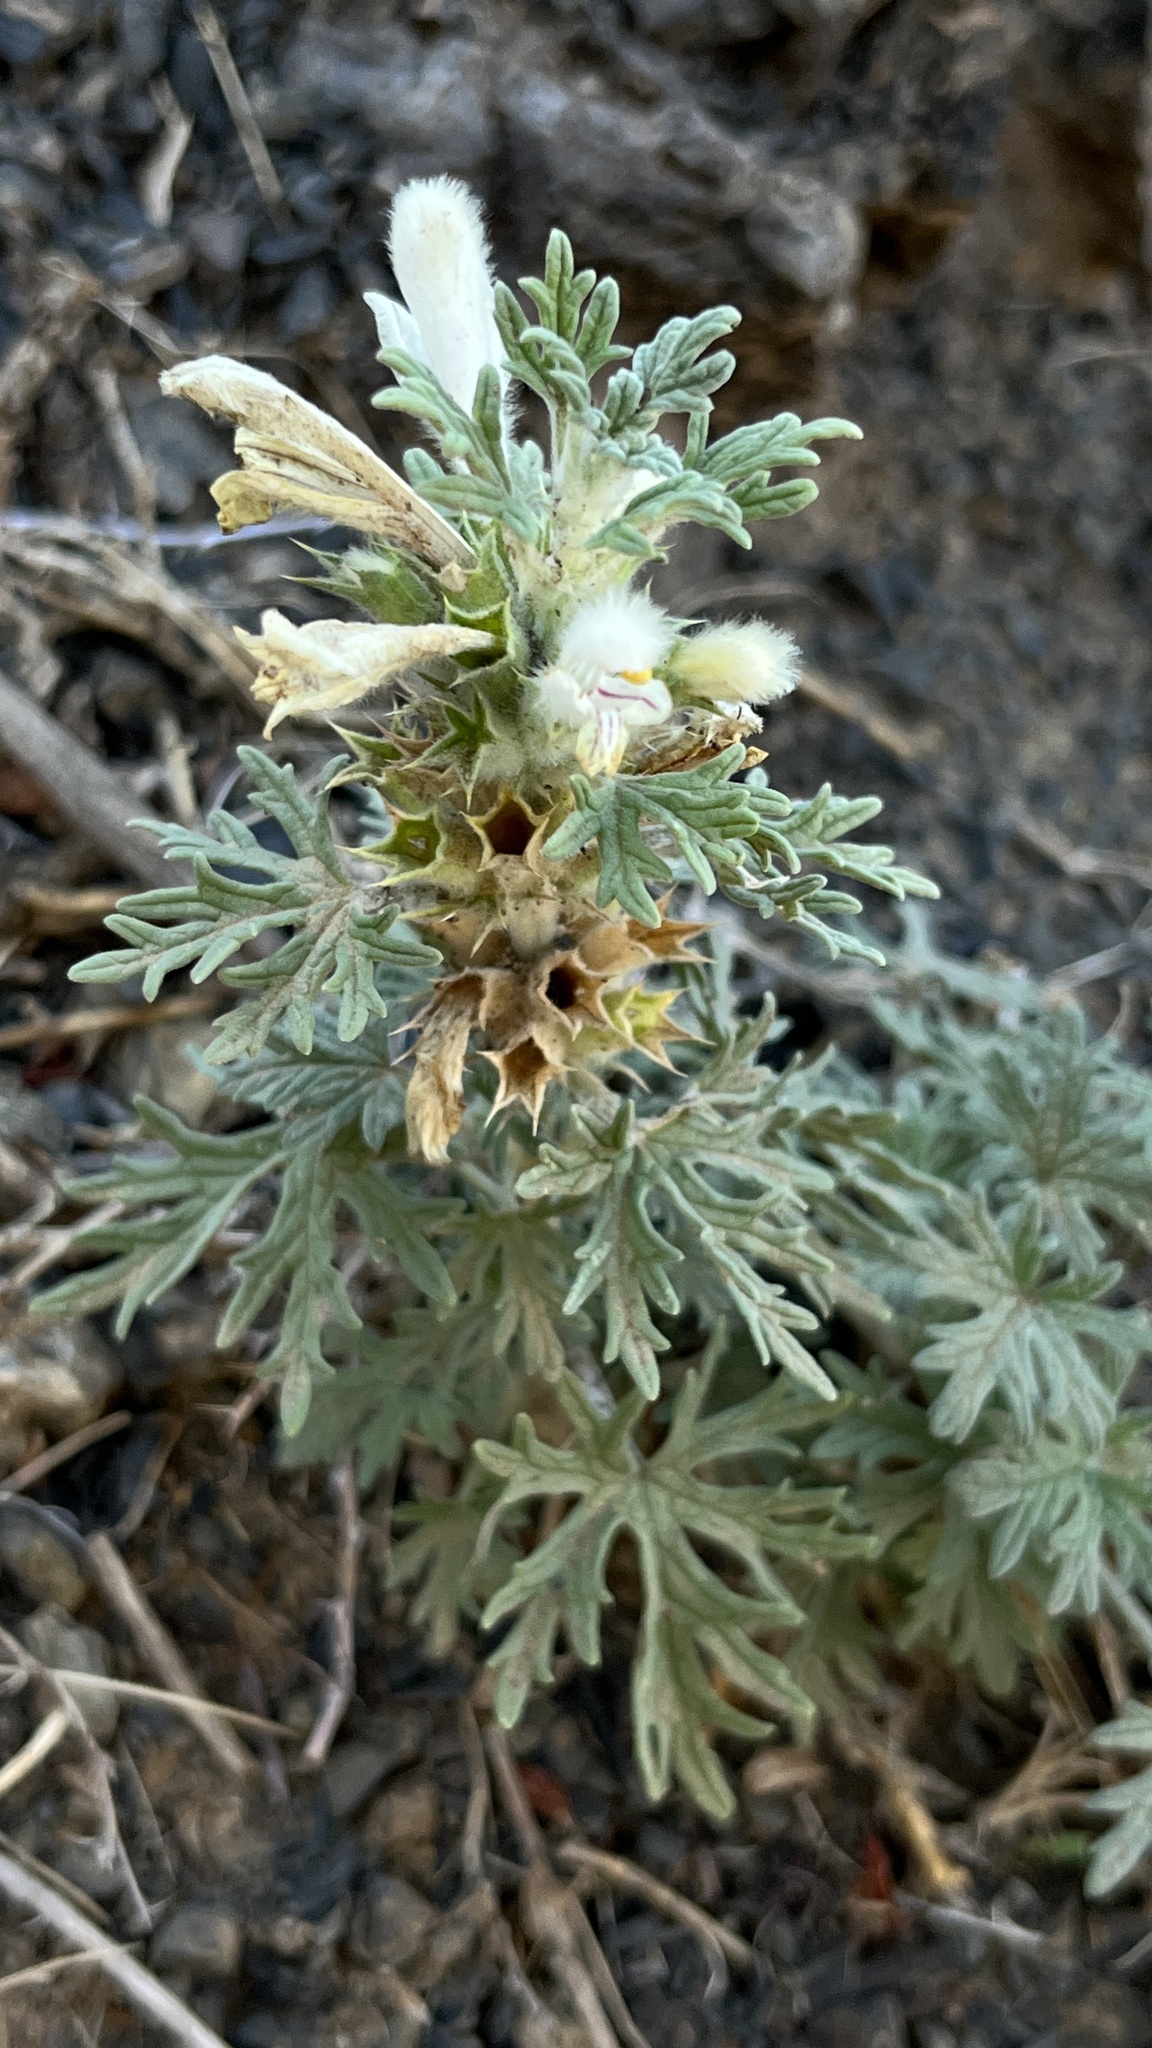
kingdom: Plantae
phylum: Tracheophyta
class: Magnoliopsida
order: Lamiales
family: Lamiaceae
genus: Panzerina
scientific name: Panzerina lanata
